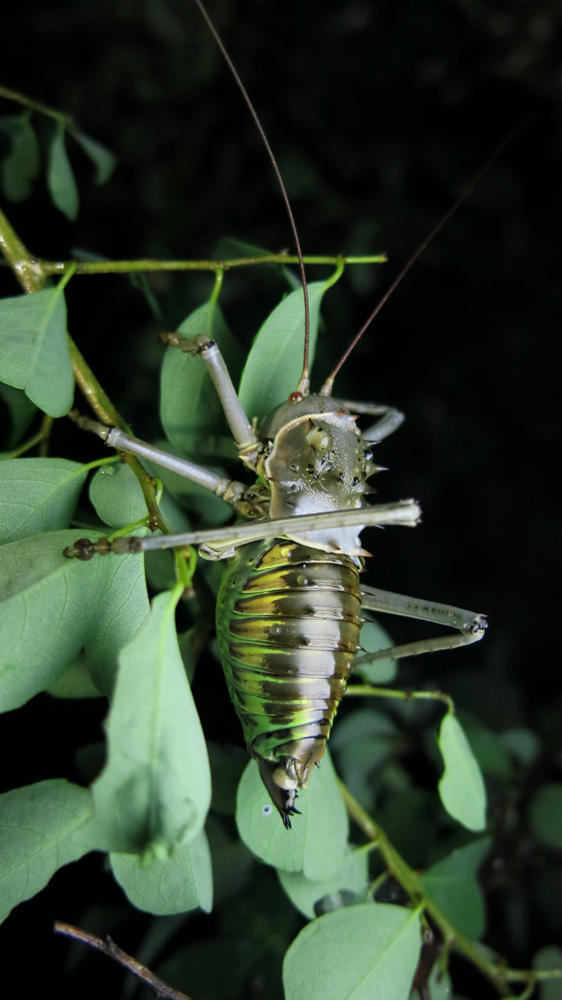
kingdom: Animalia
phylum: Arthropoda
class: Insecta
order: Orthoptera
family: Tettigoniidae
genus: Acanthoplus
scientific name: Acanthoplus discoidalis
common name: Armoured katydid
